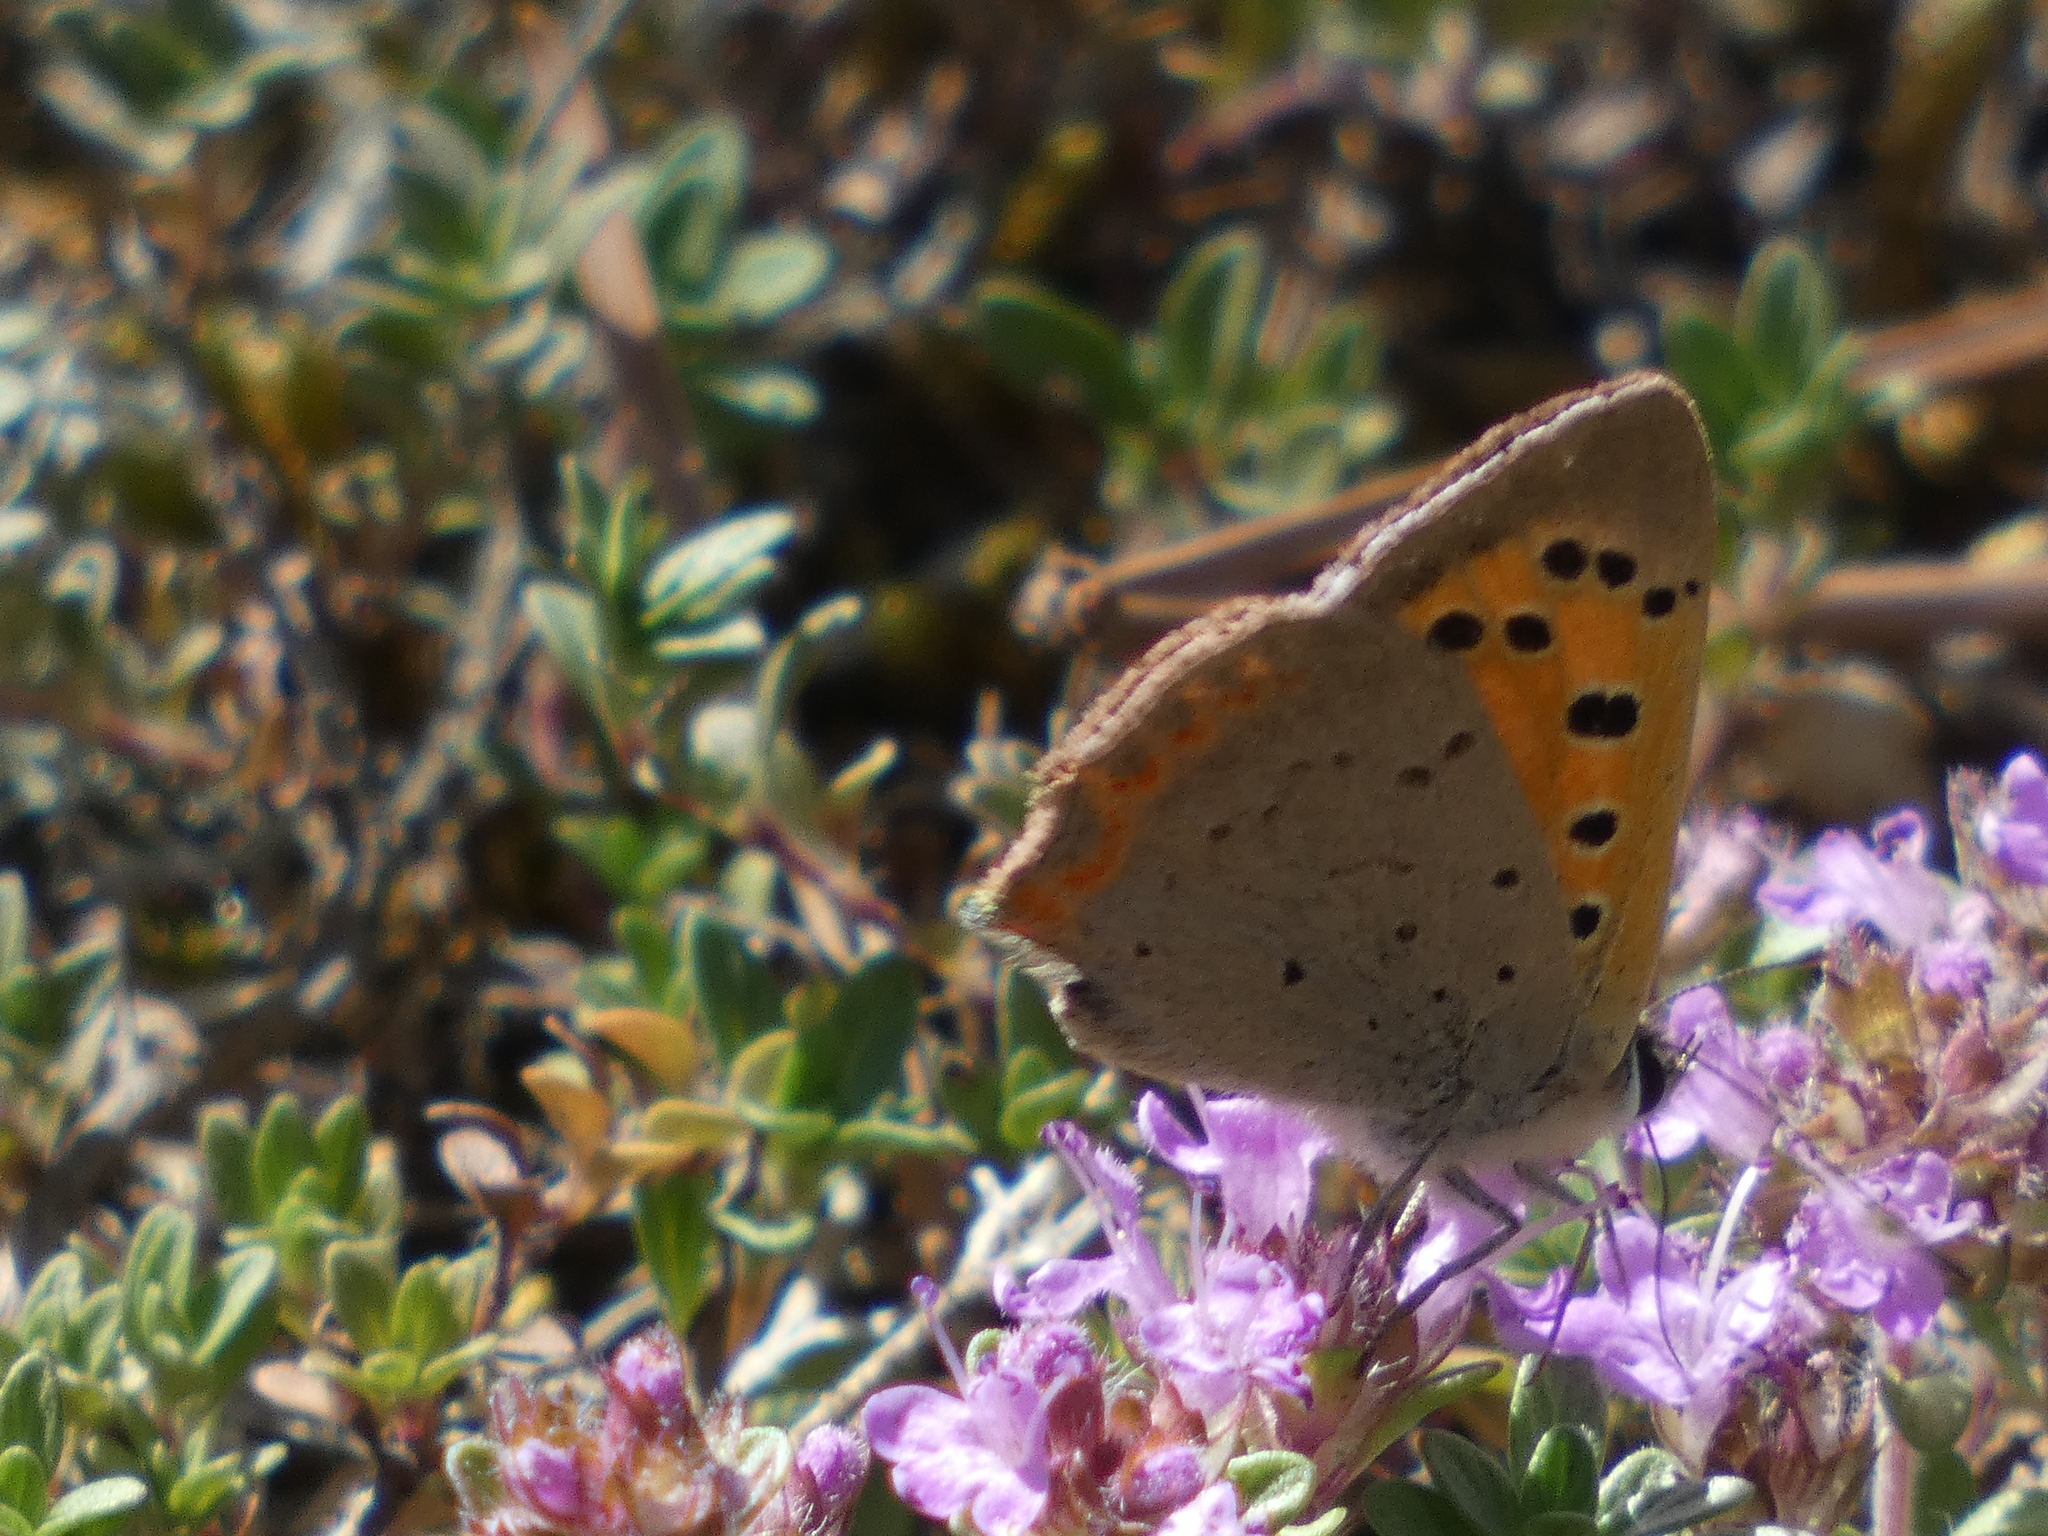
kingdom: Animalia
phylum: Arthropoda
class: Insecta
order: Lepidoptera
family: Lycaenidae
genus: Lycaena
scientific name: Lycaena phlaeas
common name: Small copper
